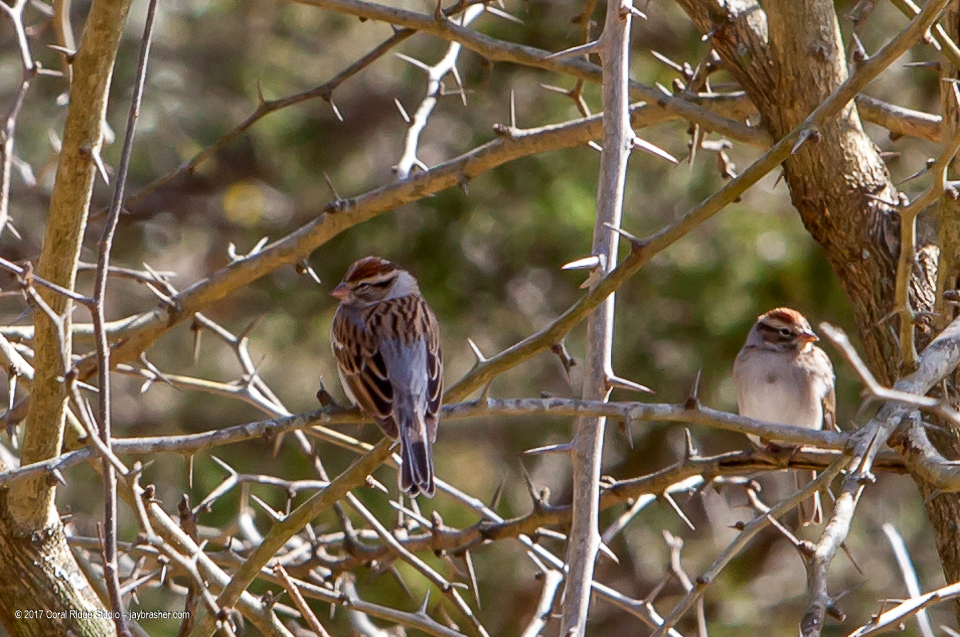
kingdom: Animalia
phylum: Chordata
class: Aves
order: Passeriformes
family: Passerellidae
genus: Spizella
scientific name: Spizella passerina
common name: Chipping sparrow
